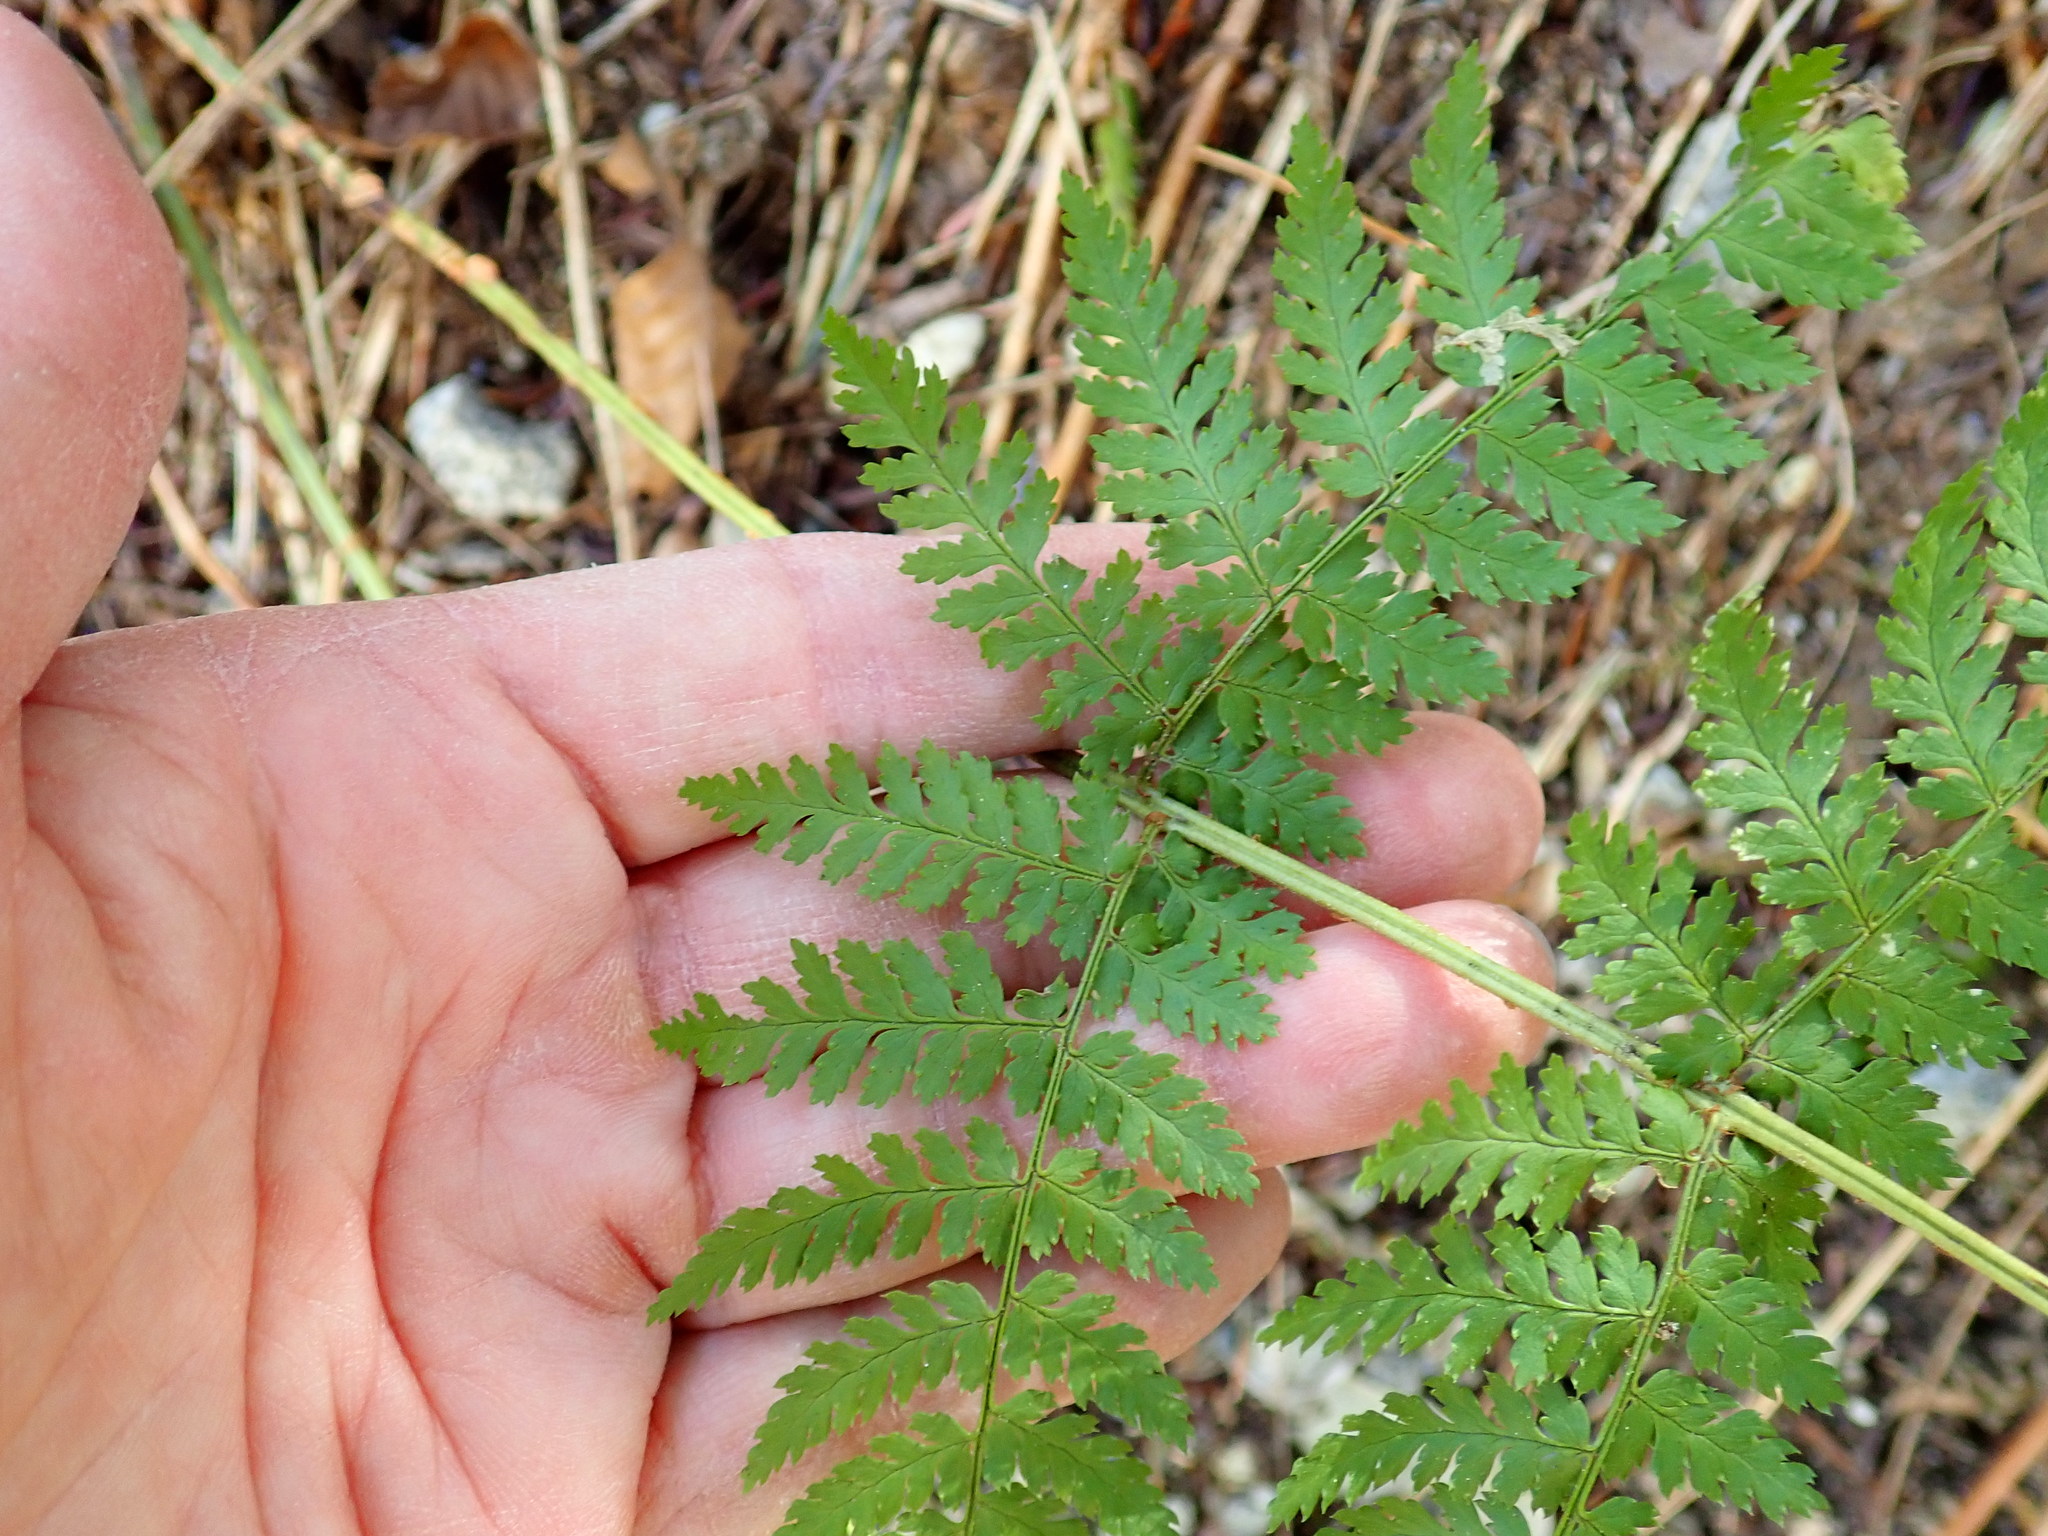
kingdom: Plantae
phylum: Tracheophyta
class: Polypodiopsida
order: Polypodiales
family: Dryopteridaceae
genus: Dryopteris
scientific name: Dryopteris campyloptera
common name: Mountain wood fern
